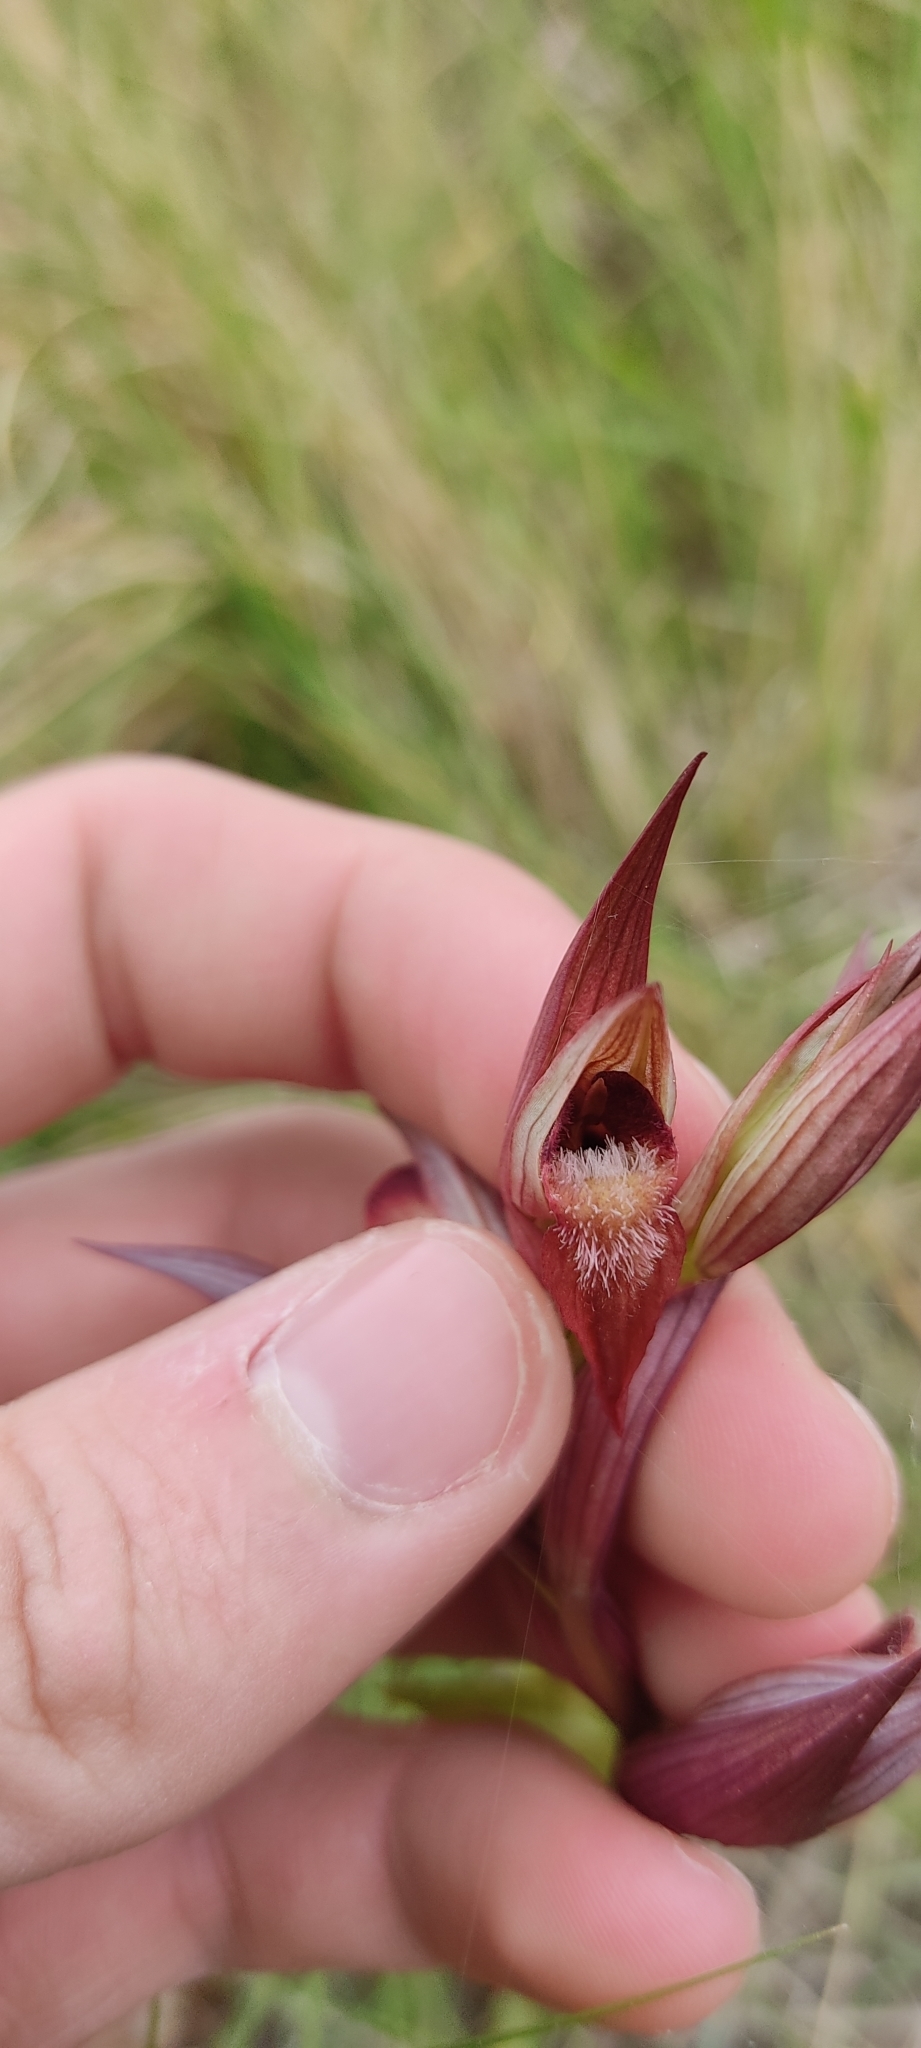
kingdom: Plantae
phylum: Tracheophyta
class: Liliopsida
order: Asparagales
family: Orchidaceae
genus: Serapias
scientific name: Serapias vomeracea
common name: Long-lipped tongue-orchid
